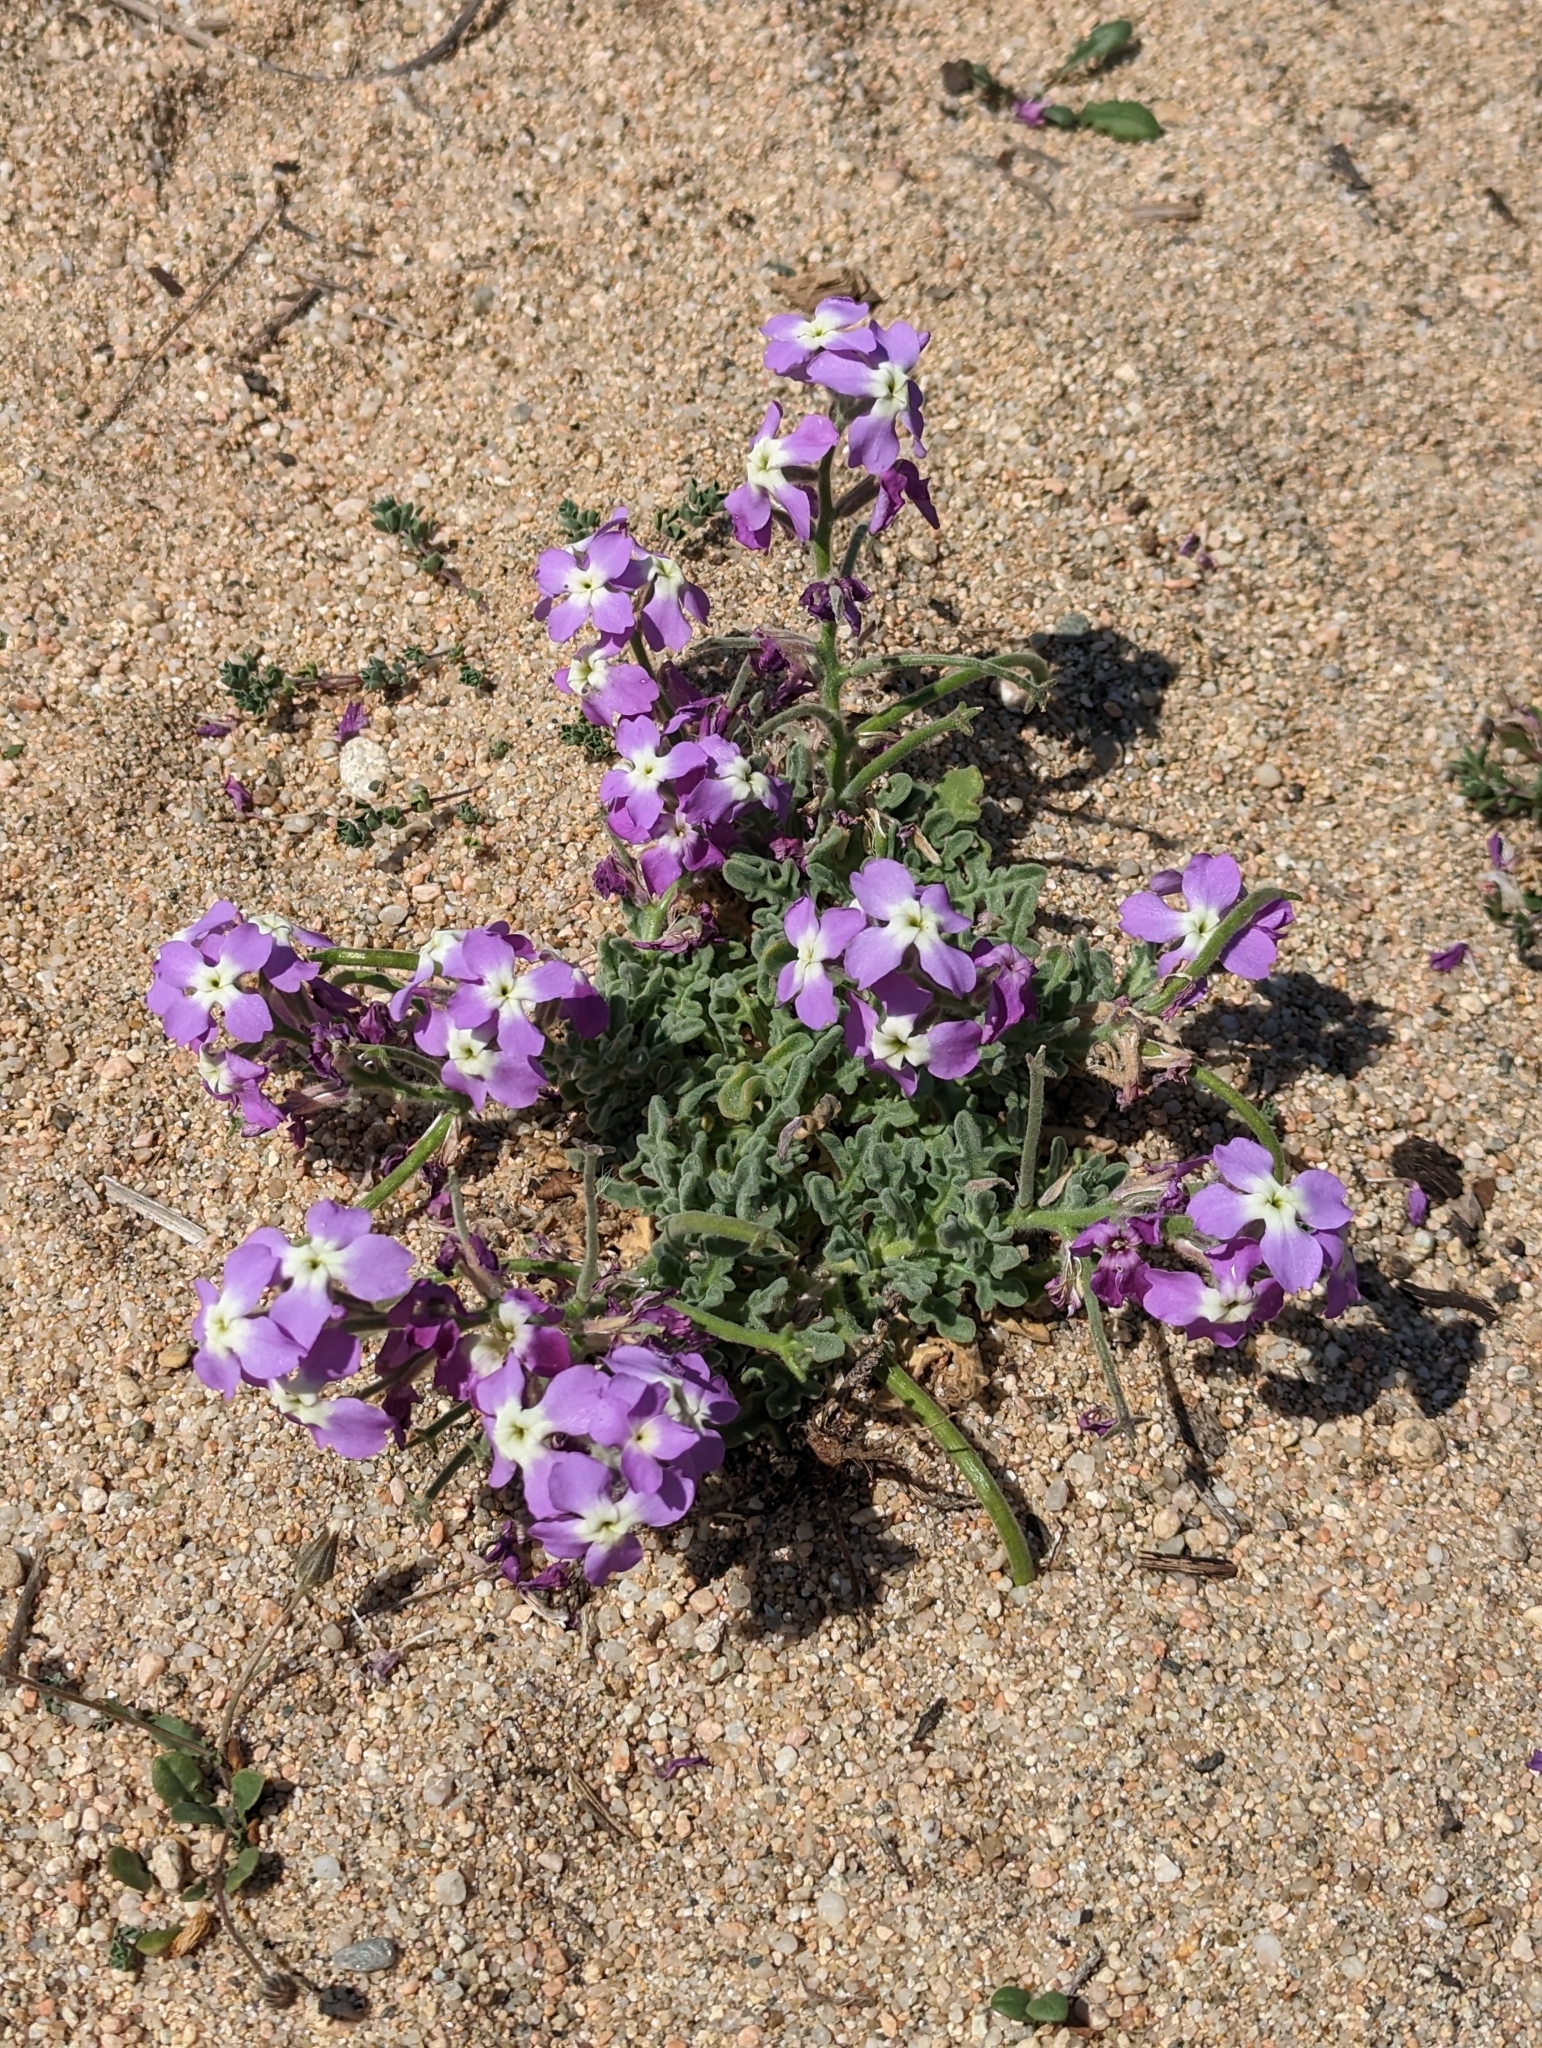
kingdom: Plantae
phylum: Tracheophyta
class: Magnoliopsida
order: Brassicales
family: Brassicaceae
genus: Matthiola
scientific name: Matthiola tricuspidata
